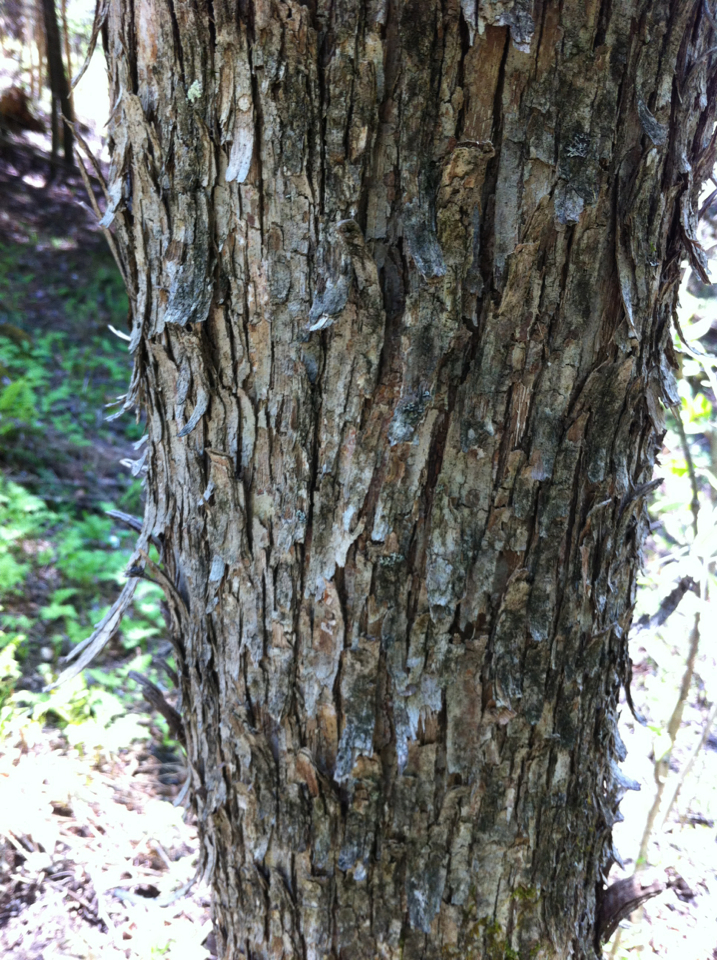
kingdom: Plantae
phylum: Tracheophyta
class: Magnoliopsida
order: Fagales
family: Betulaceae
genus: Ostrya
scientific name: Ostrya virginiana
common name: Ironwood
